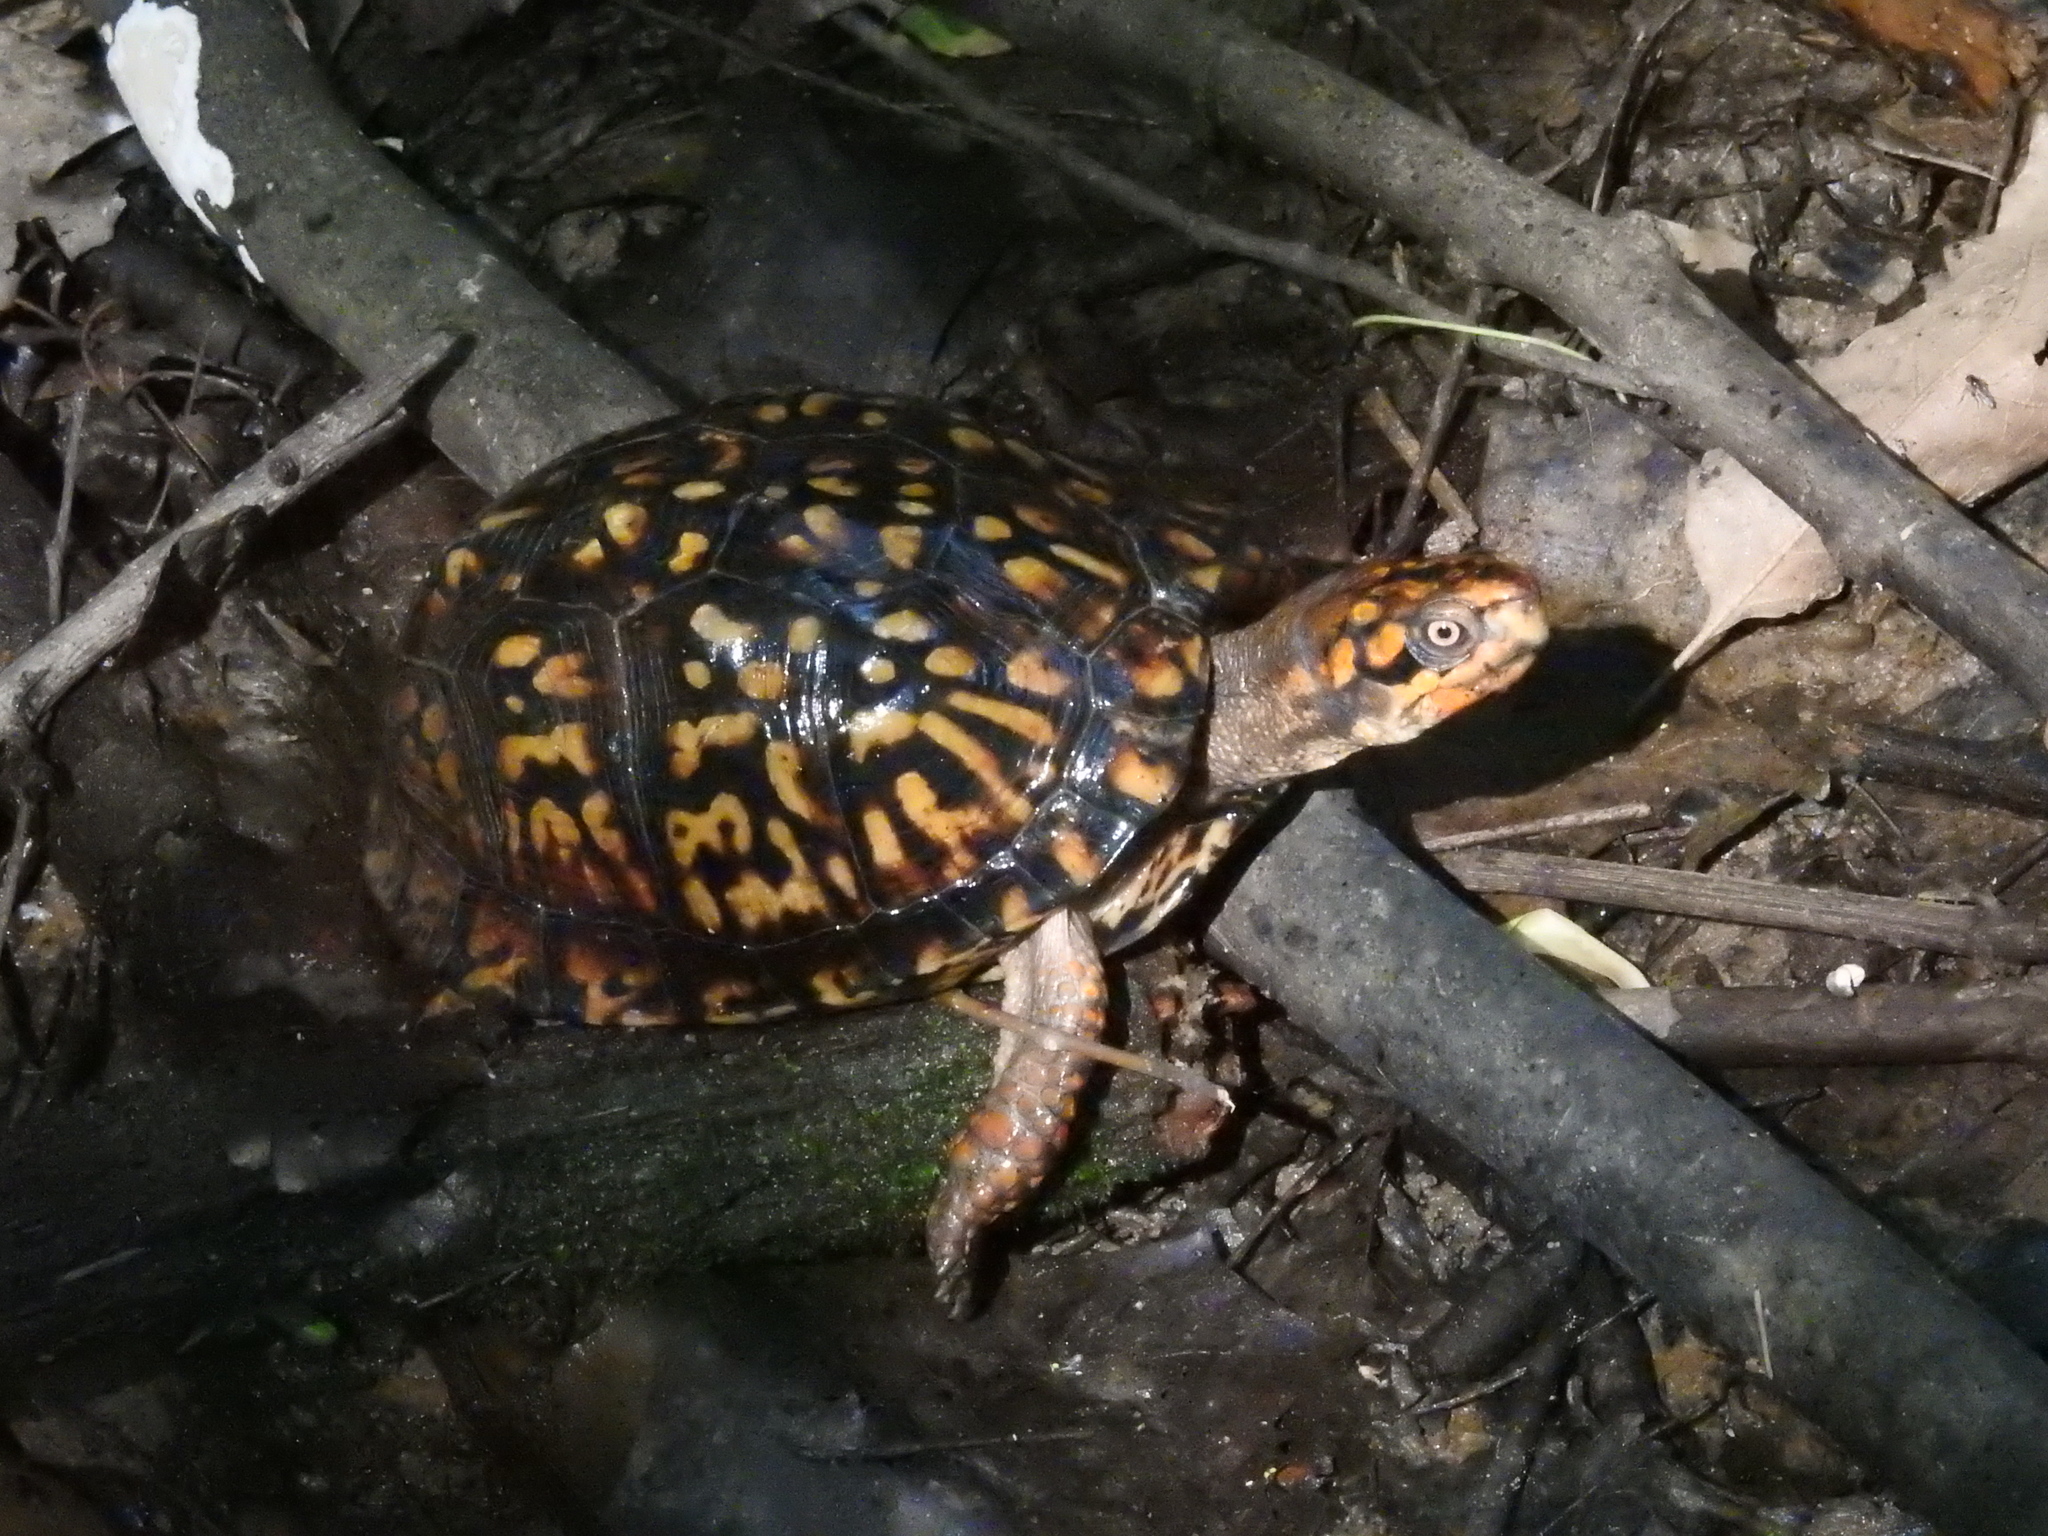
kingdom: Animalia
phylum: Chordata
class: Testudines
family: Emydidae
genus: Terrapene
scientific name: Terrapene carolina
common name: Common box turtle
